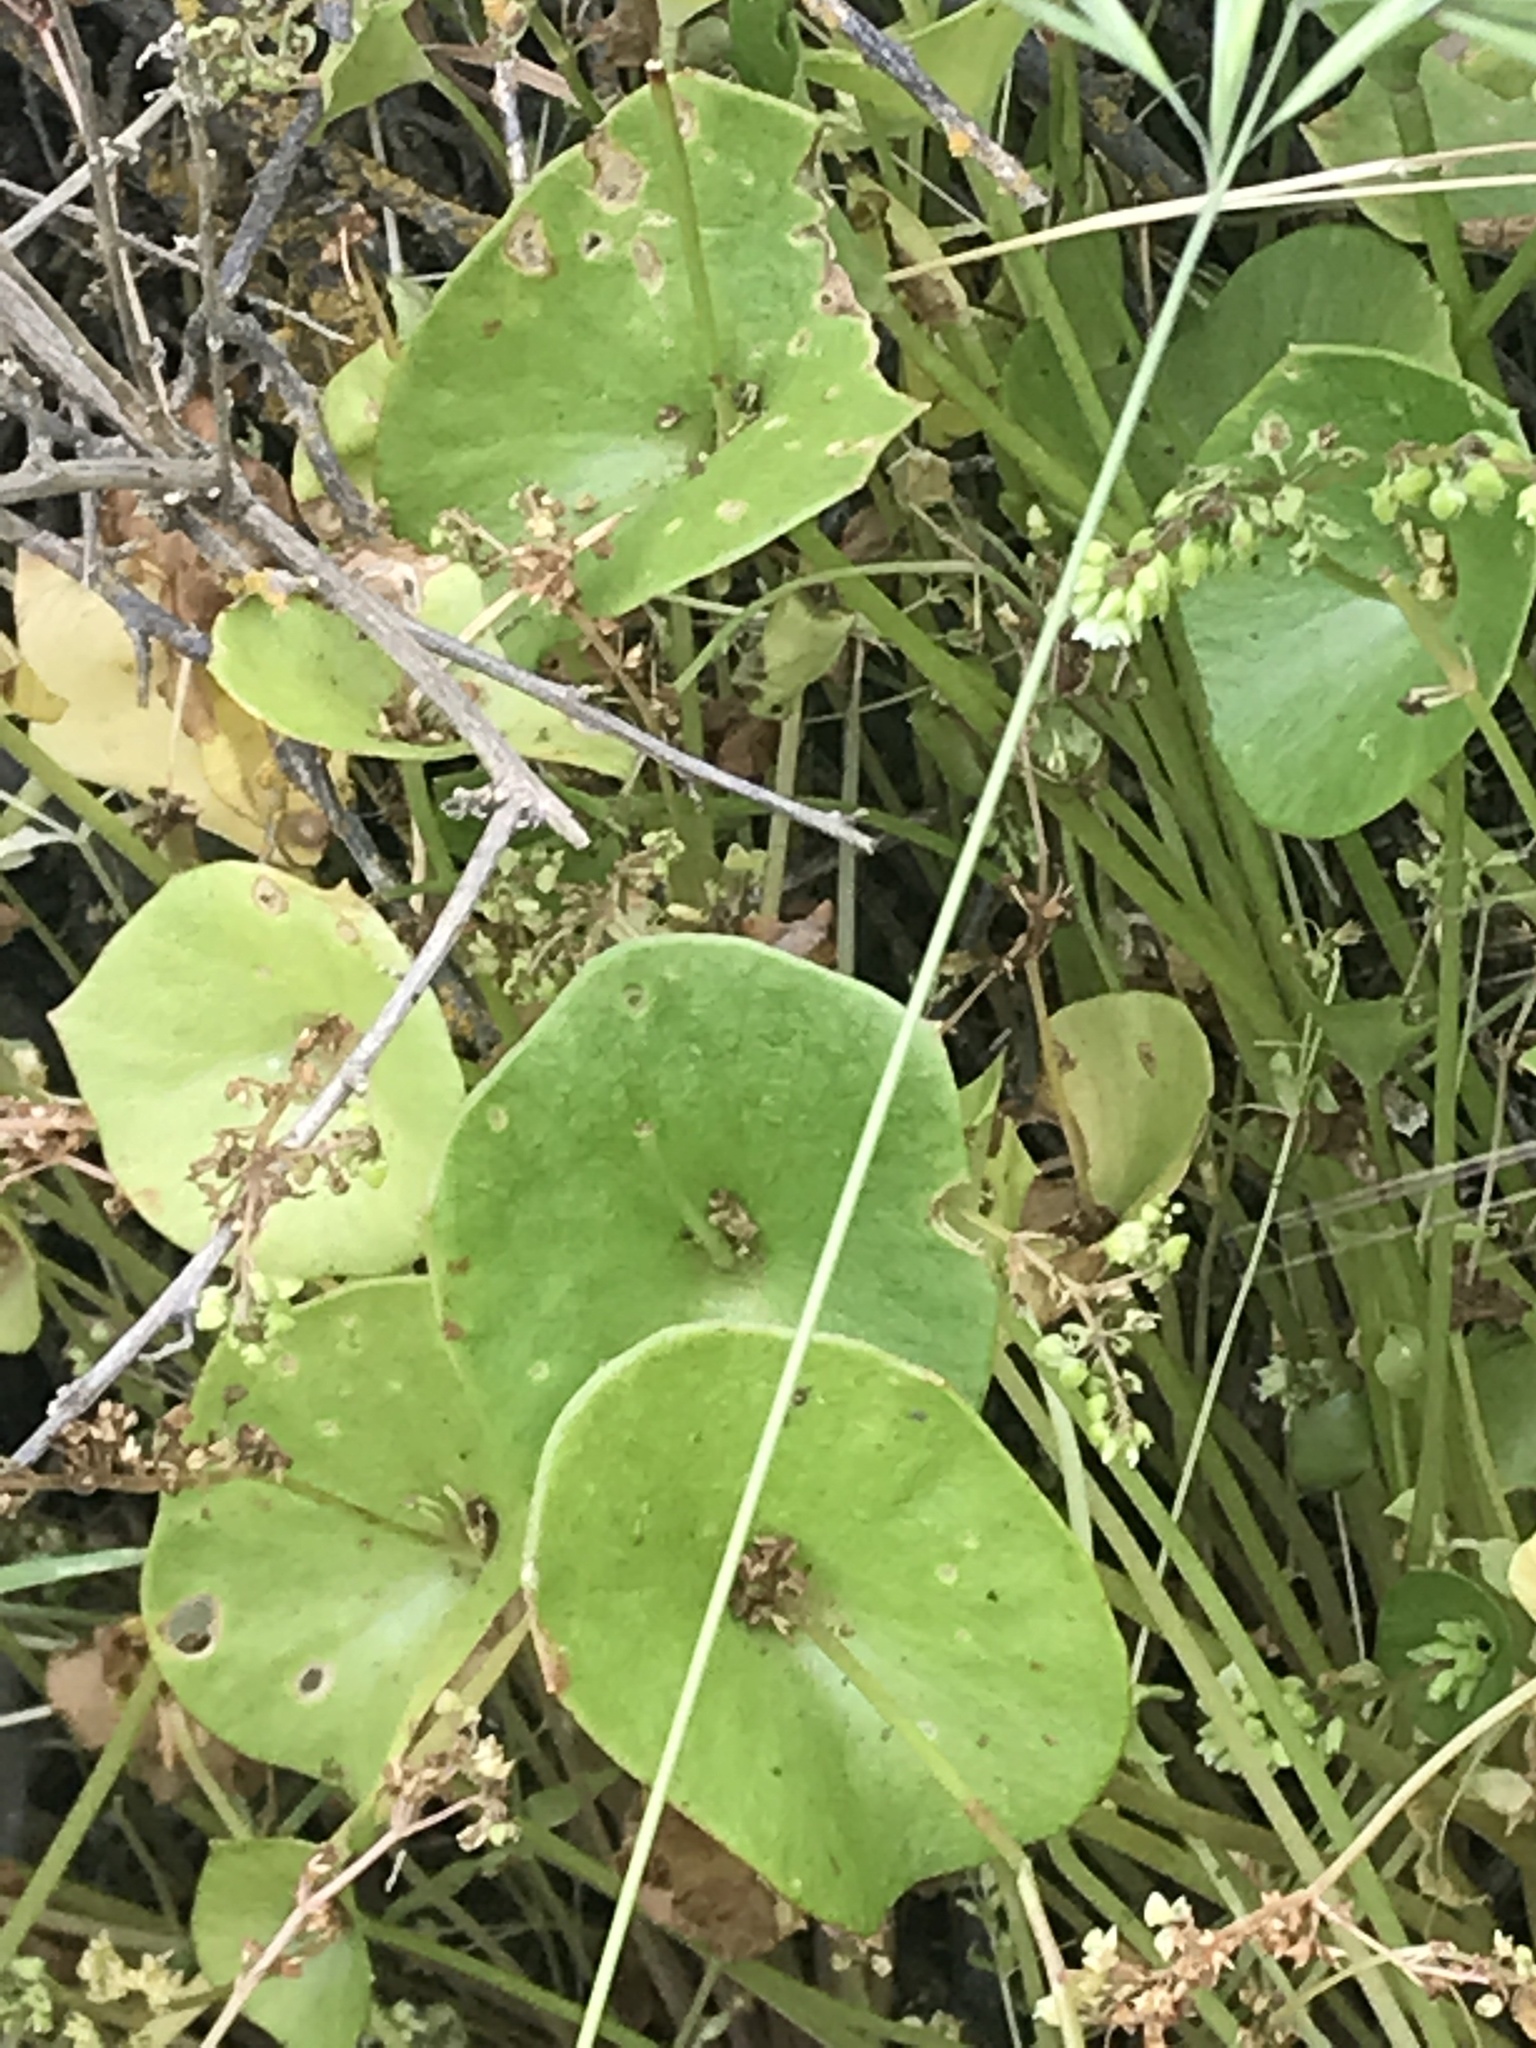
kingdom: Plantae
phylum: Tracheophyta
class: Magnoliopsida
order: Caryophyllales
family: Montiaceae
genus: Claytonia
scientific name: Claytonia perfoliata
